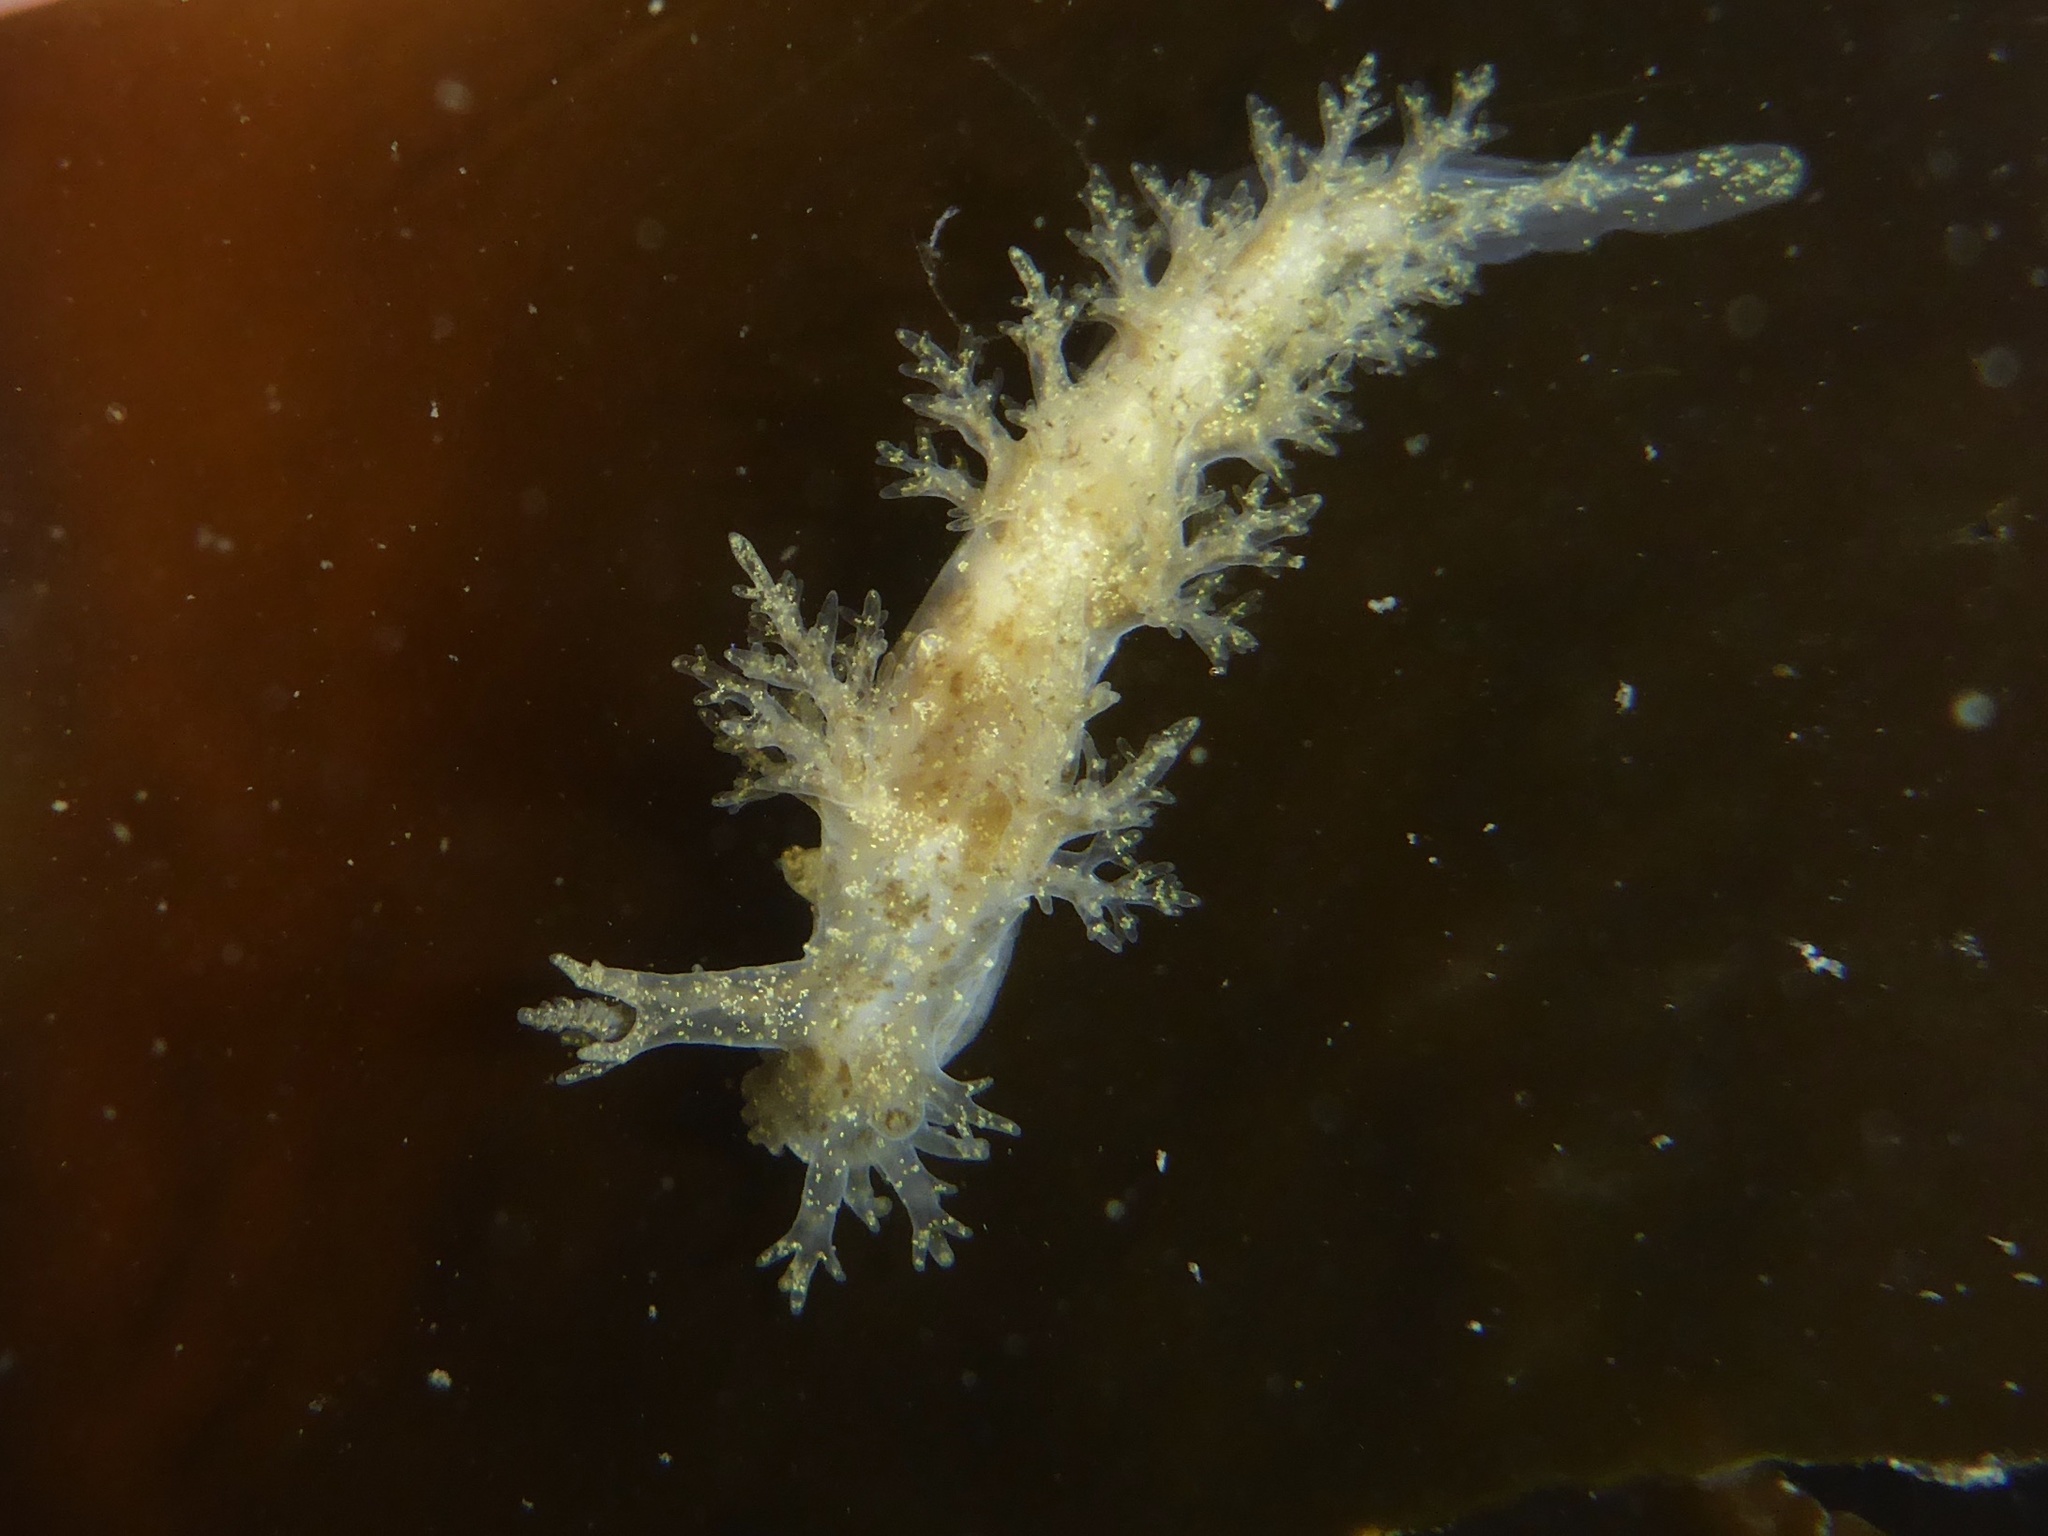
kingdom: Animalia
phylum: Mollusca
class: Gastropoda
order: Nudibranchia
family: Dendronotidae
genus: Dendronotus
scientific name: Dendronotus venustus
